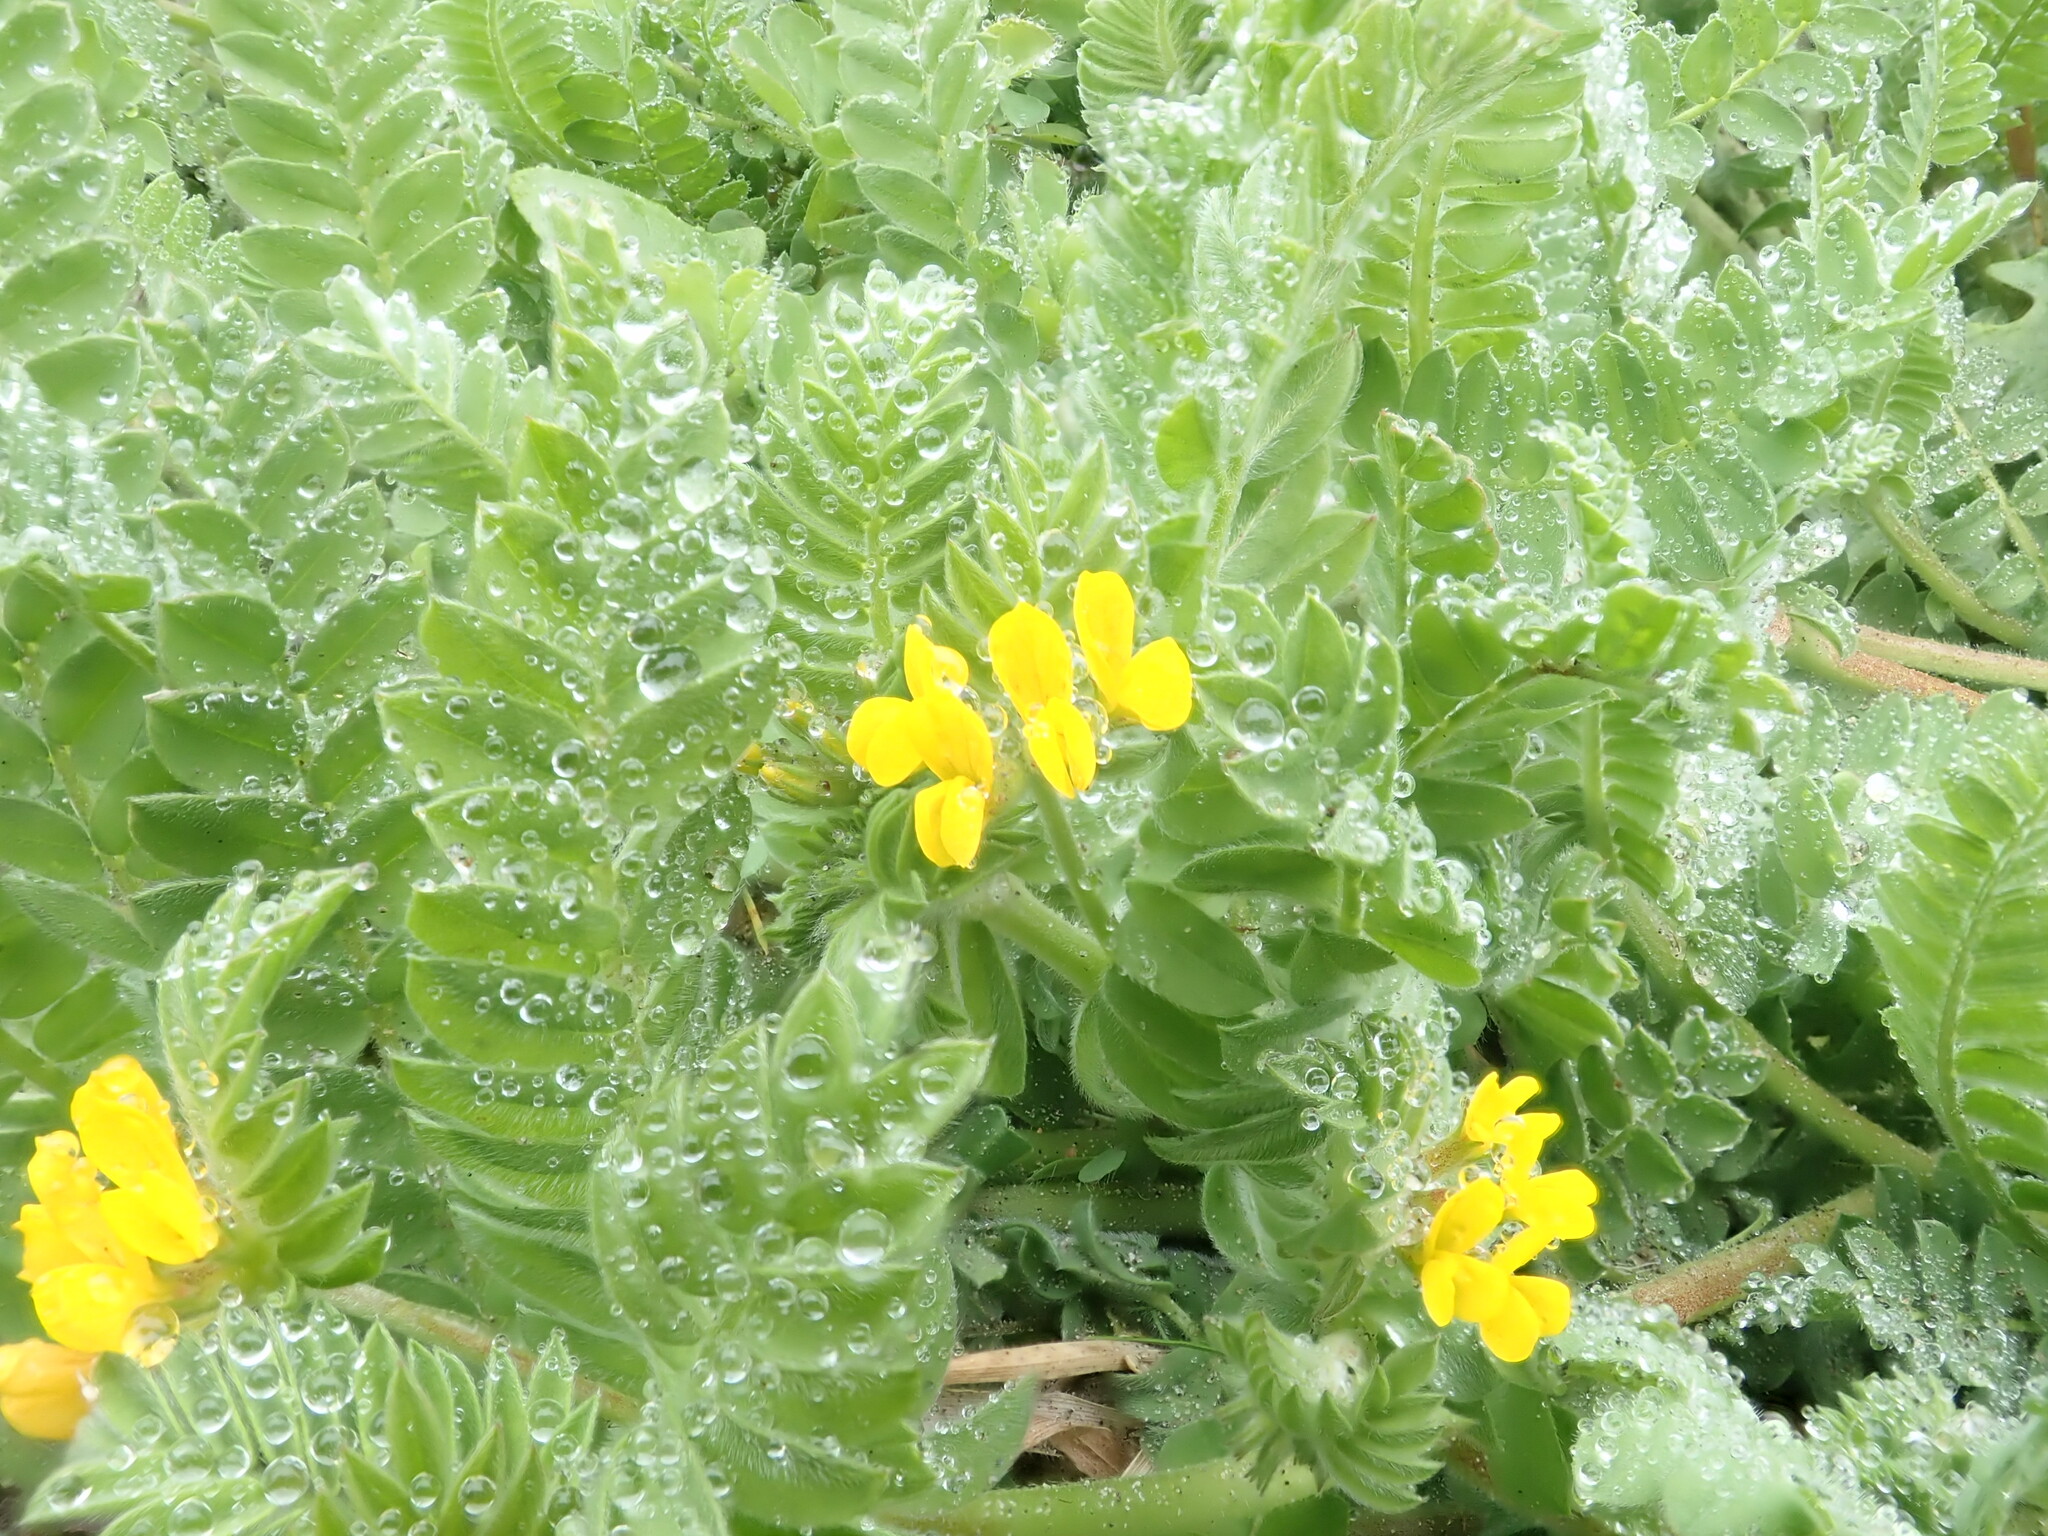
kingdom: Plantae
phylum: Tracheophyta
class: Magnoliopsida
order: Fabales
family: Fabaceae
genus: Ornithopus
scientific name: Ornithopus compressus
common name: Yellow serradella
